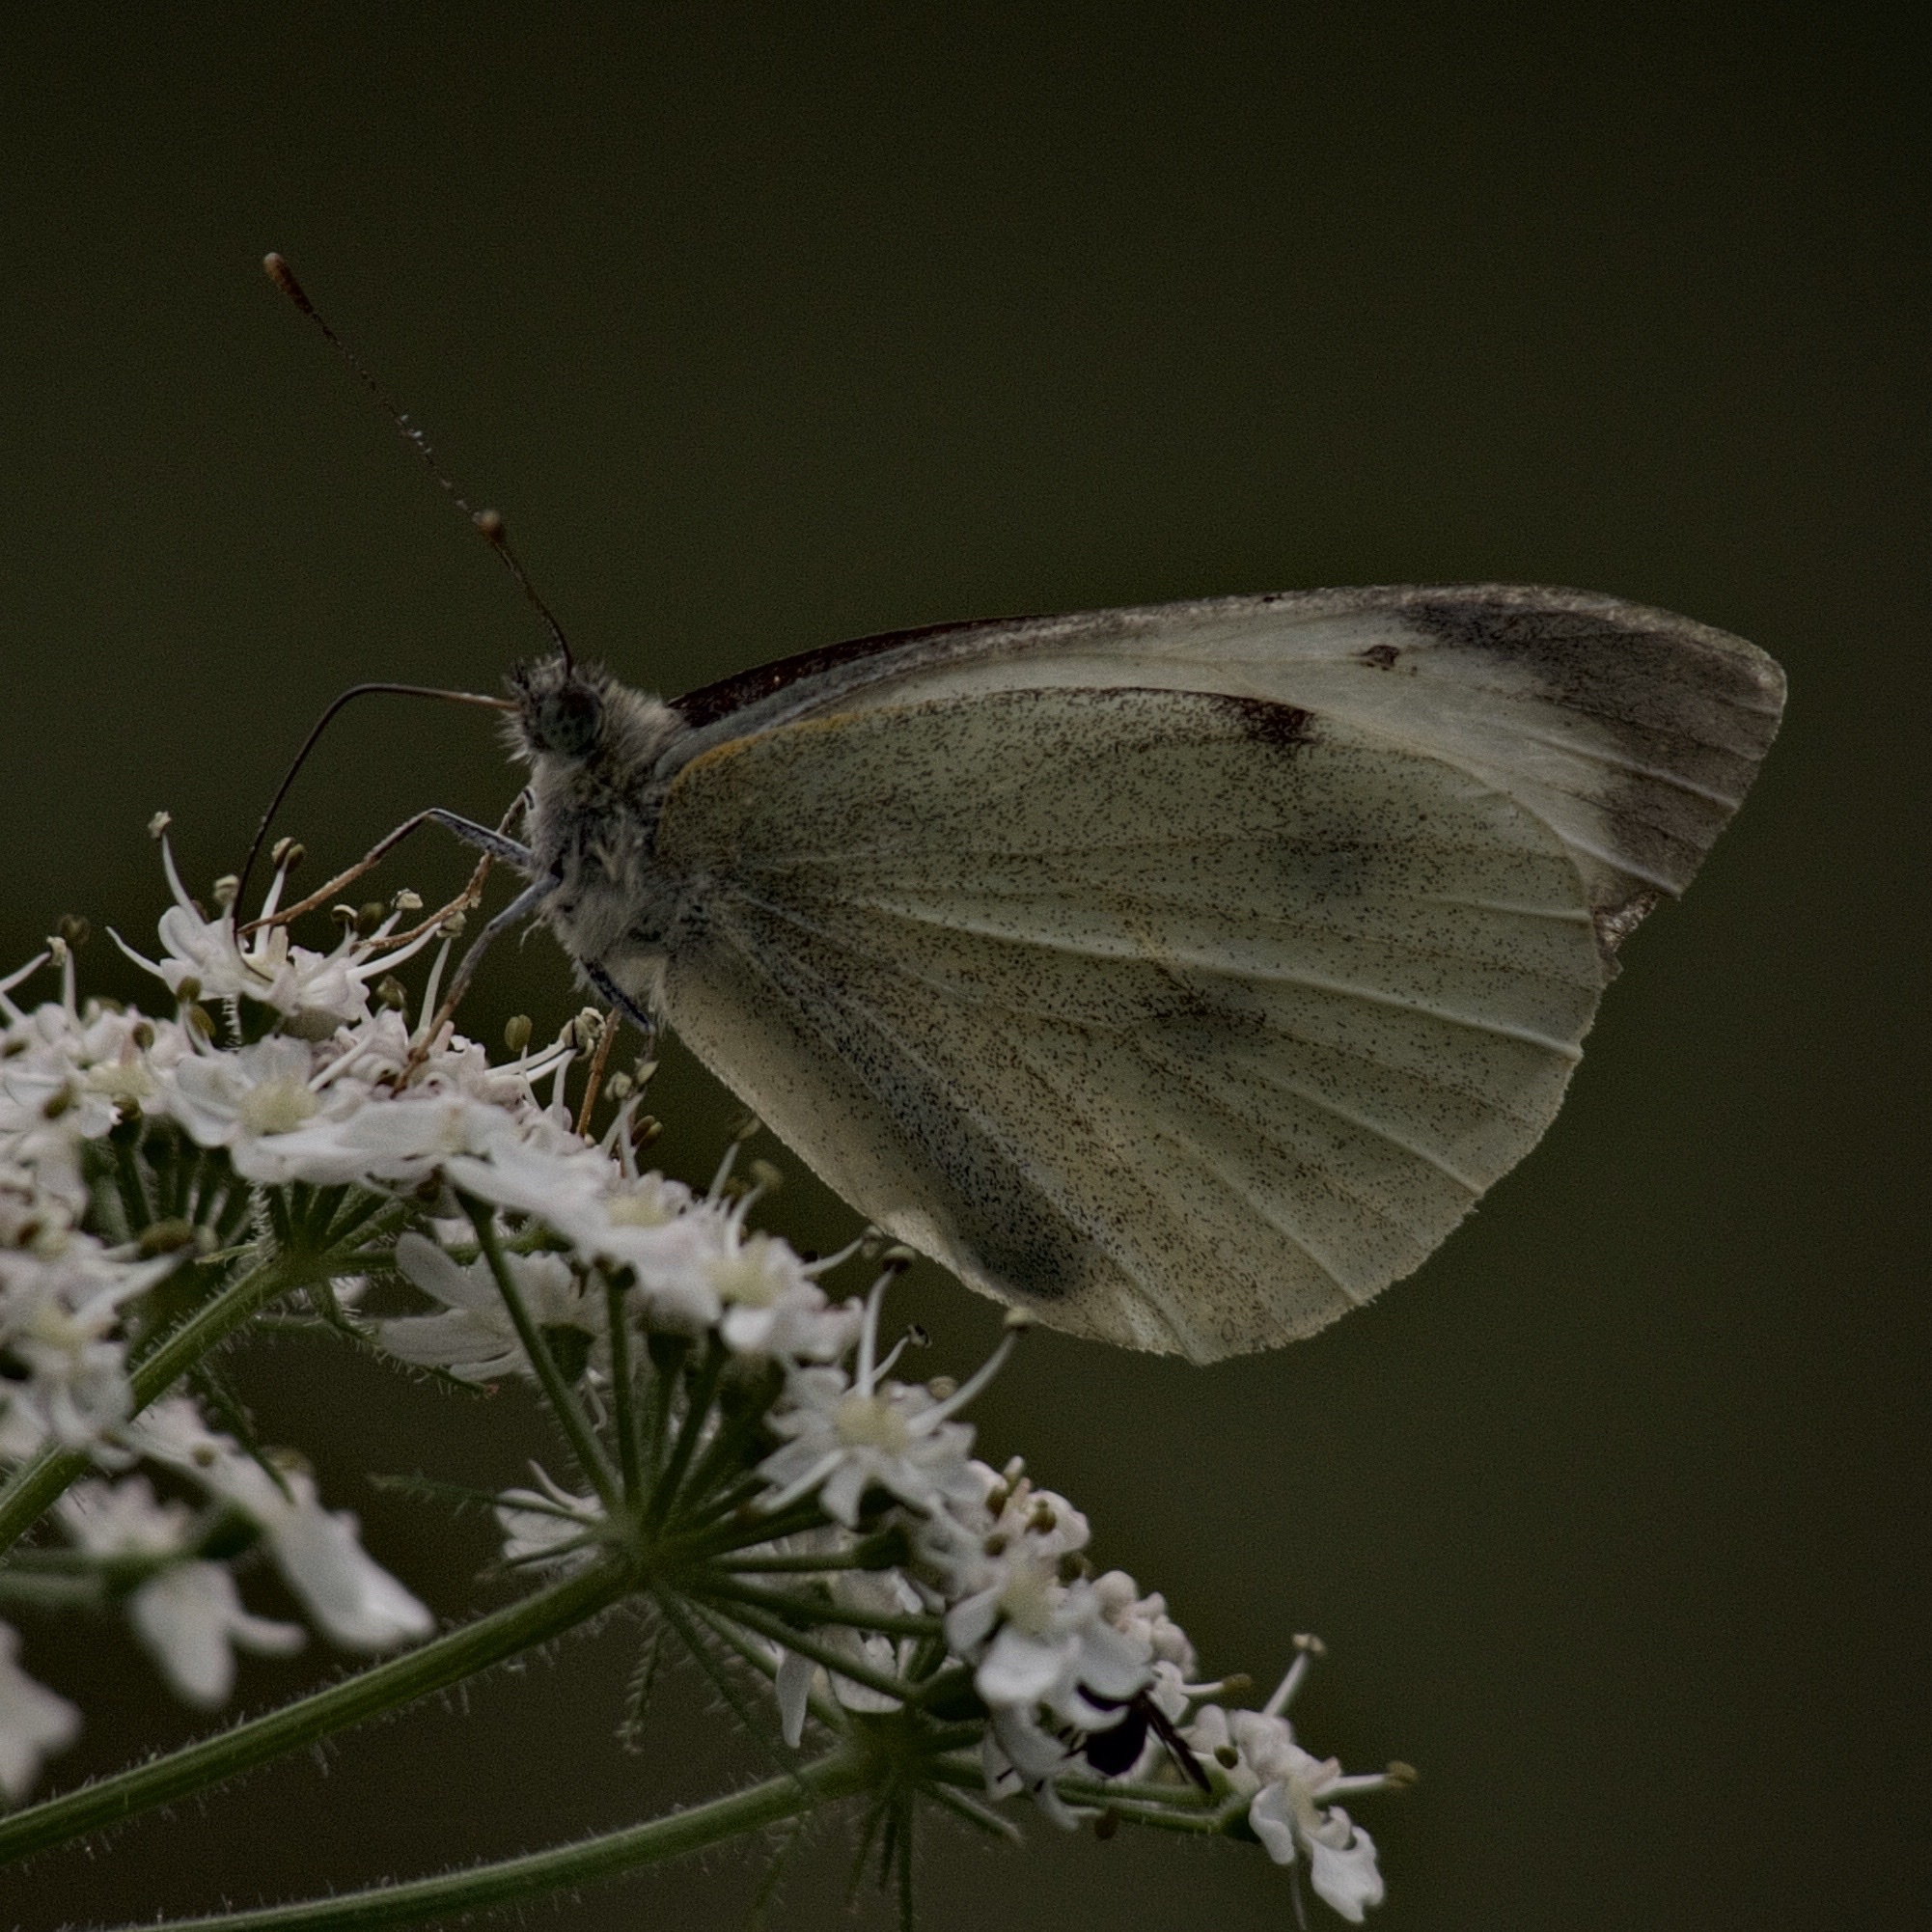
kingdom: Animalia
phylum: Arthropoda
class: Insecta
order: Lepidoptera
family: Pieridae
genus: Pieris
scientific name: Pieris brassicae
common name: Large white
